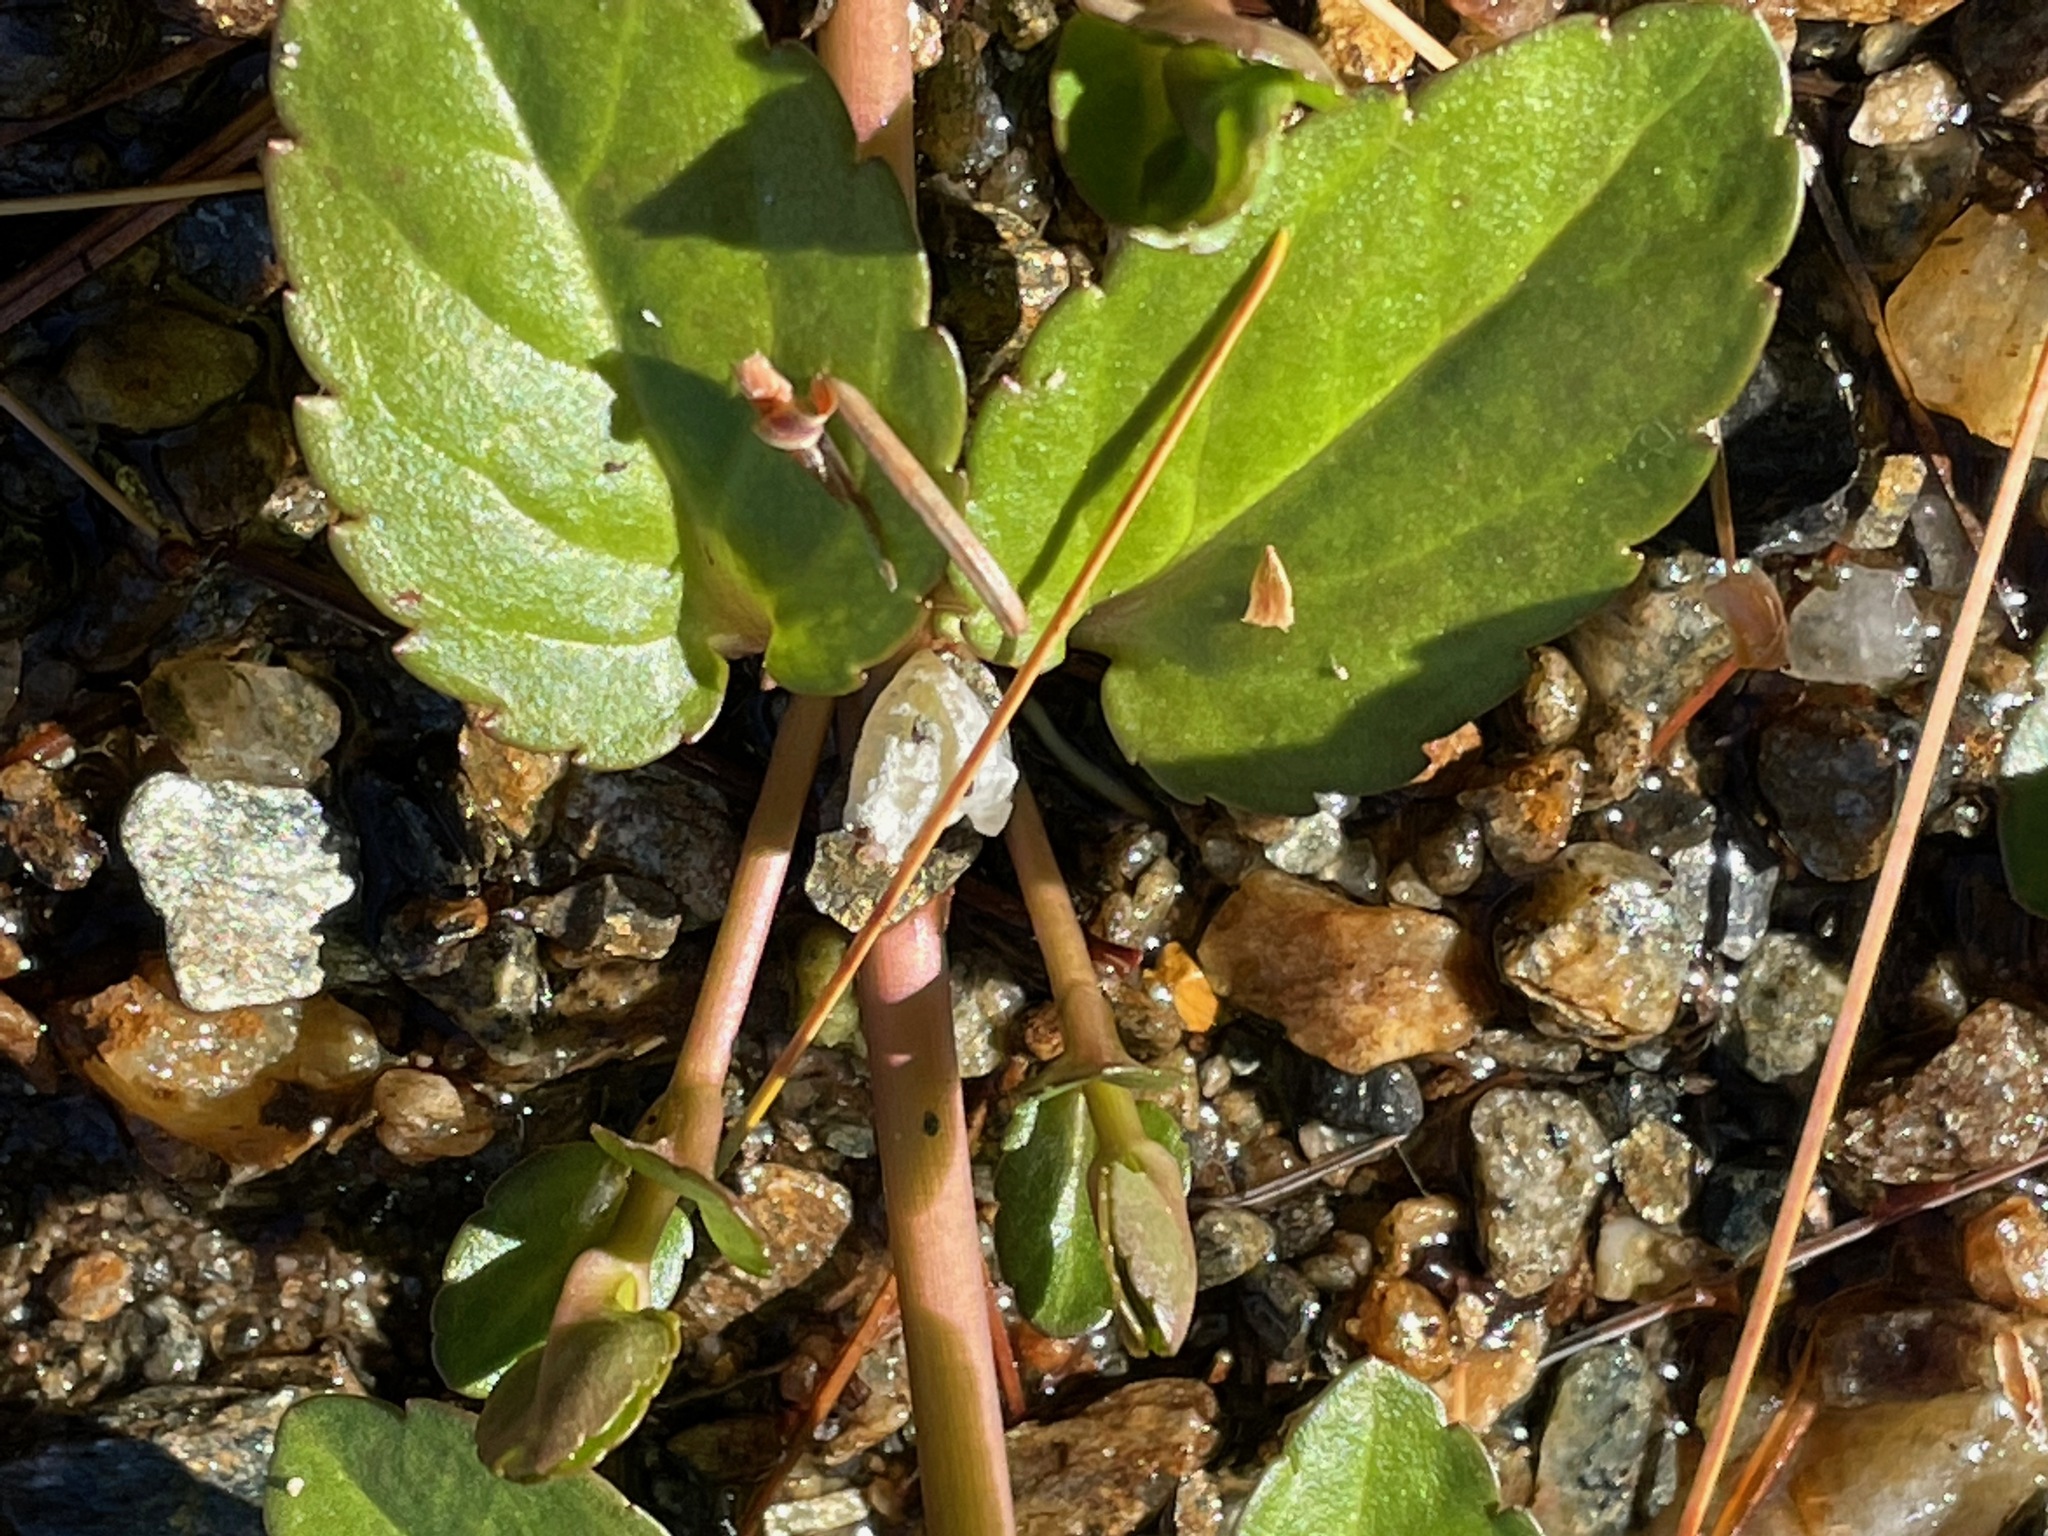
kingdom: Plantae
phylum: Tracheophyta
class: Magnoliopsida
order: Lamiales
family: Plantaginaceae
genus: Veronica
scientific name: Veronica americana
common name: American brooklime
